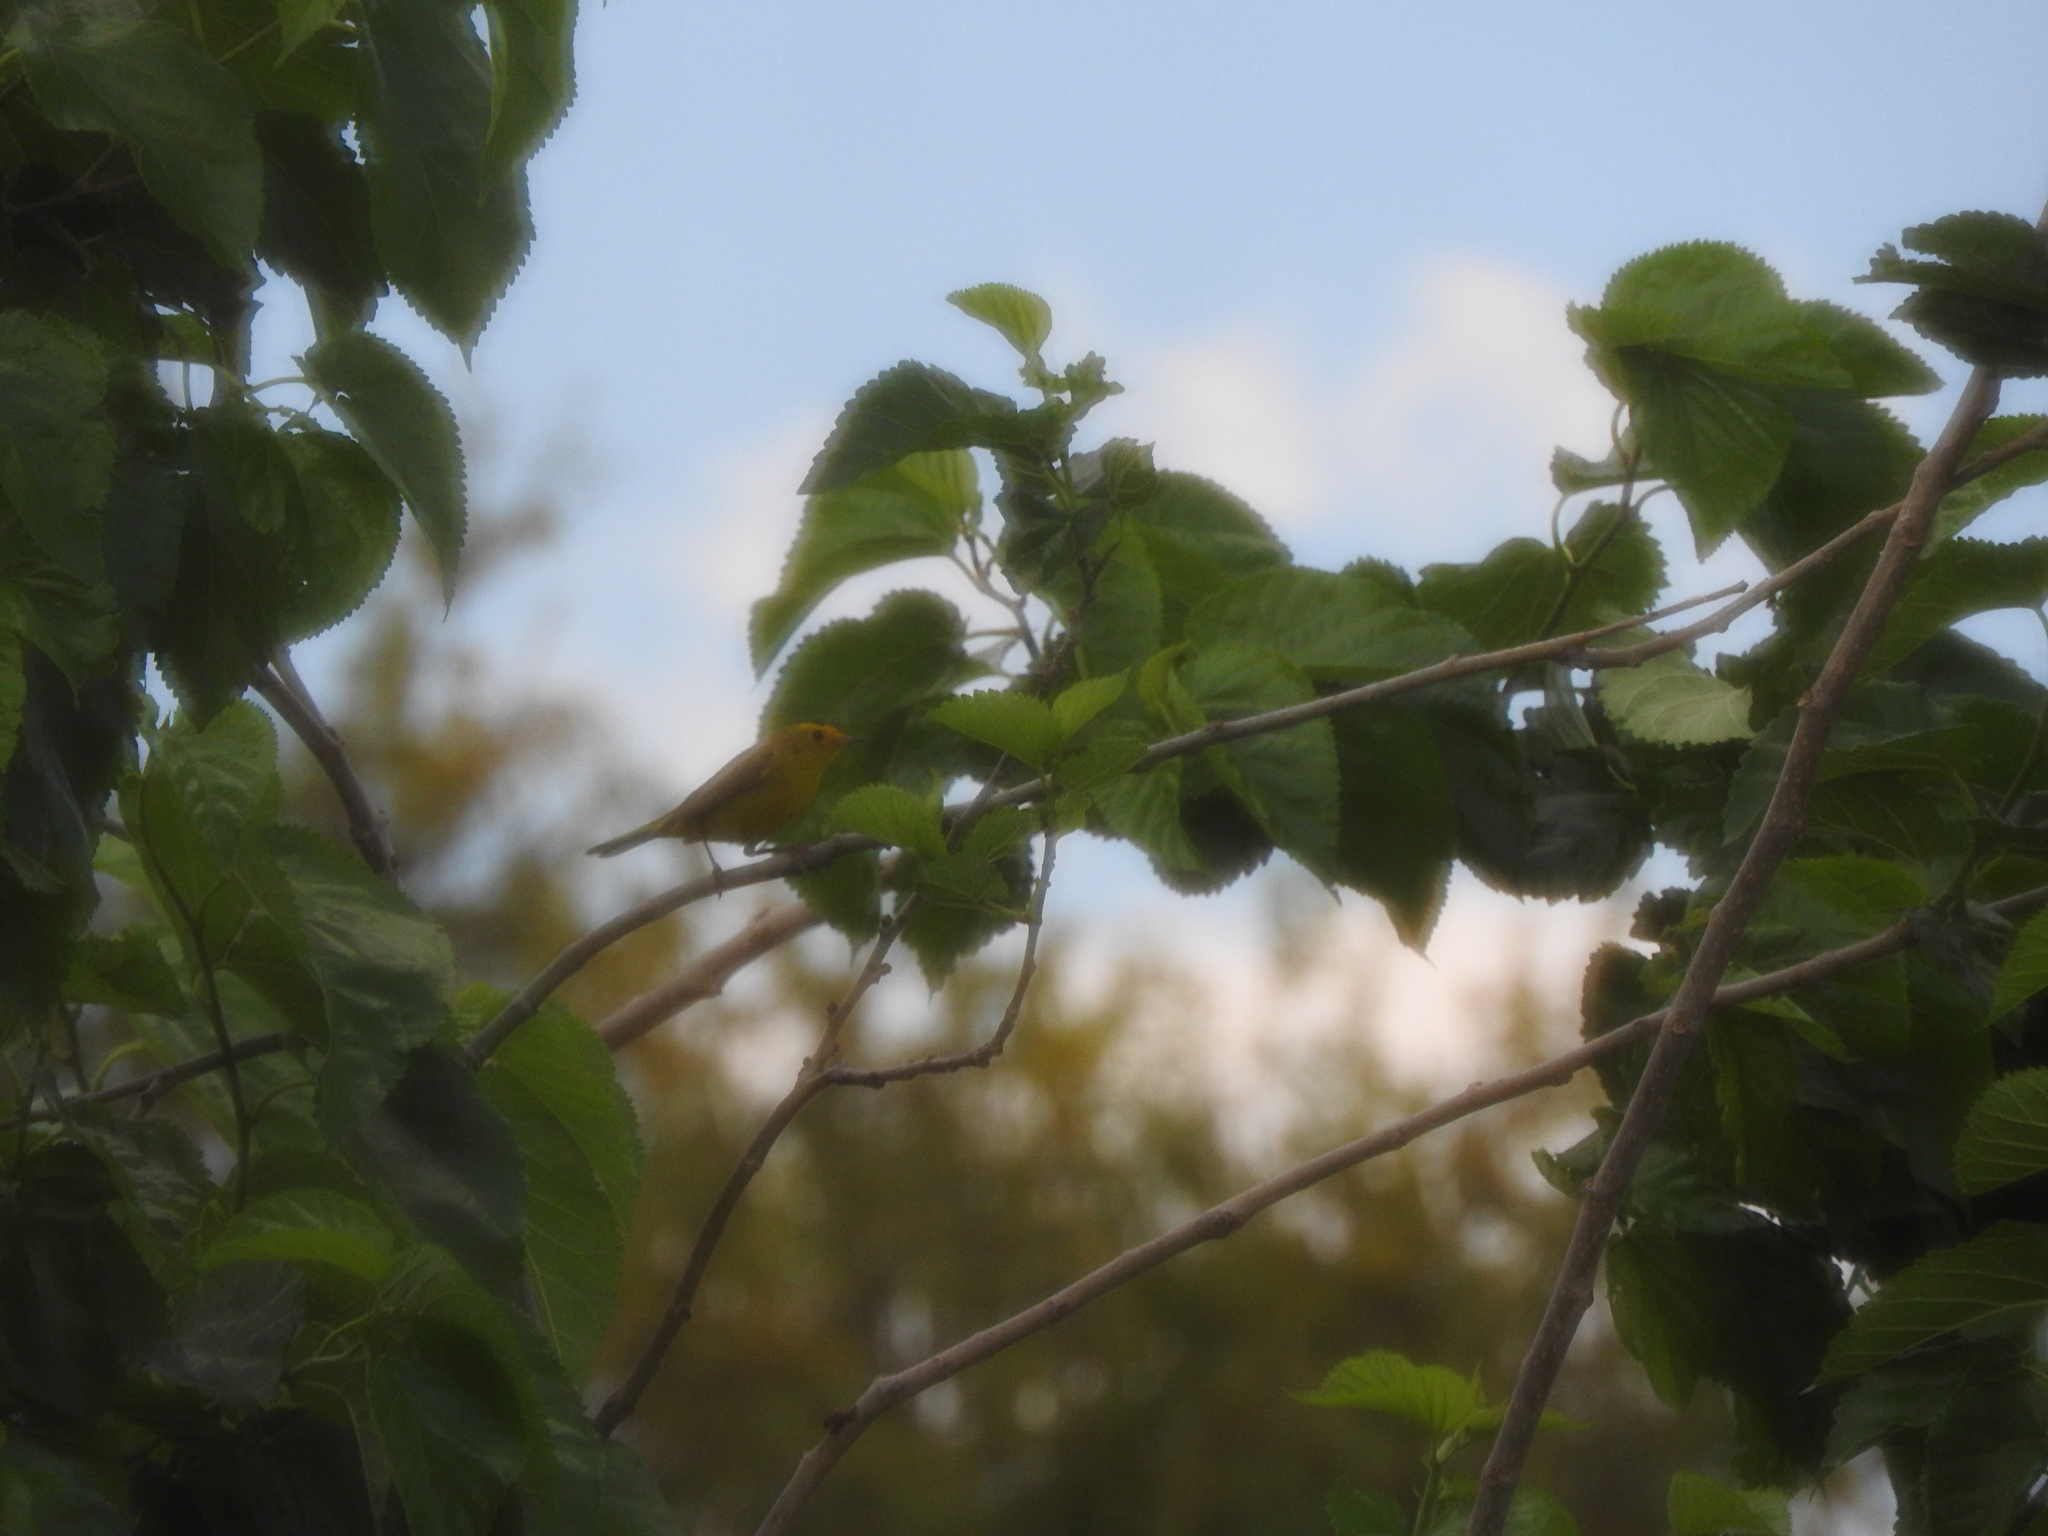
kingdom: Animalia
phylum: Chordata
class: Aves
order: Passeriformes
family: Parulidae
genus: Cardellina
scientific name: Cardellina pusilla
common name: Wilson's warbler
